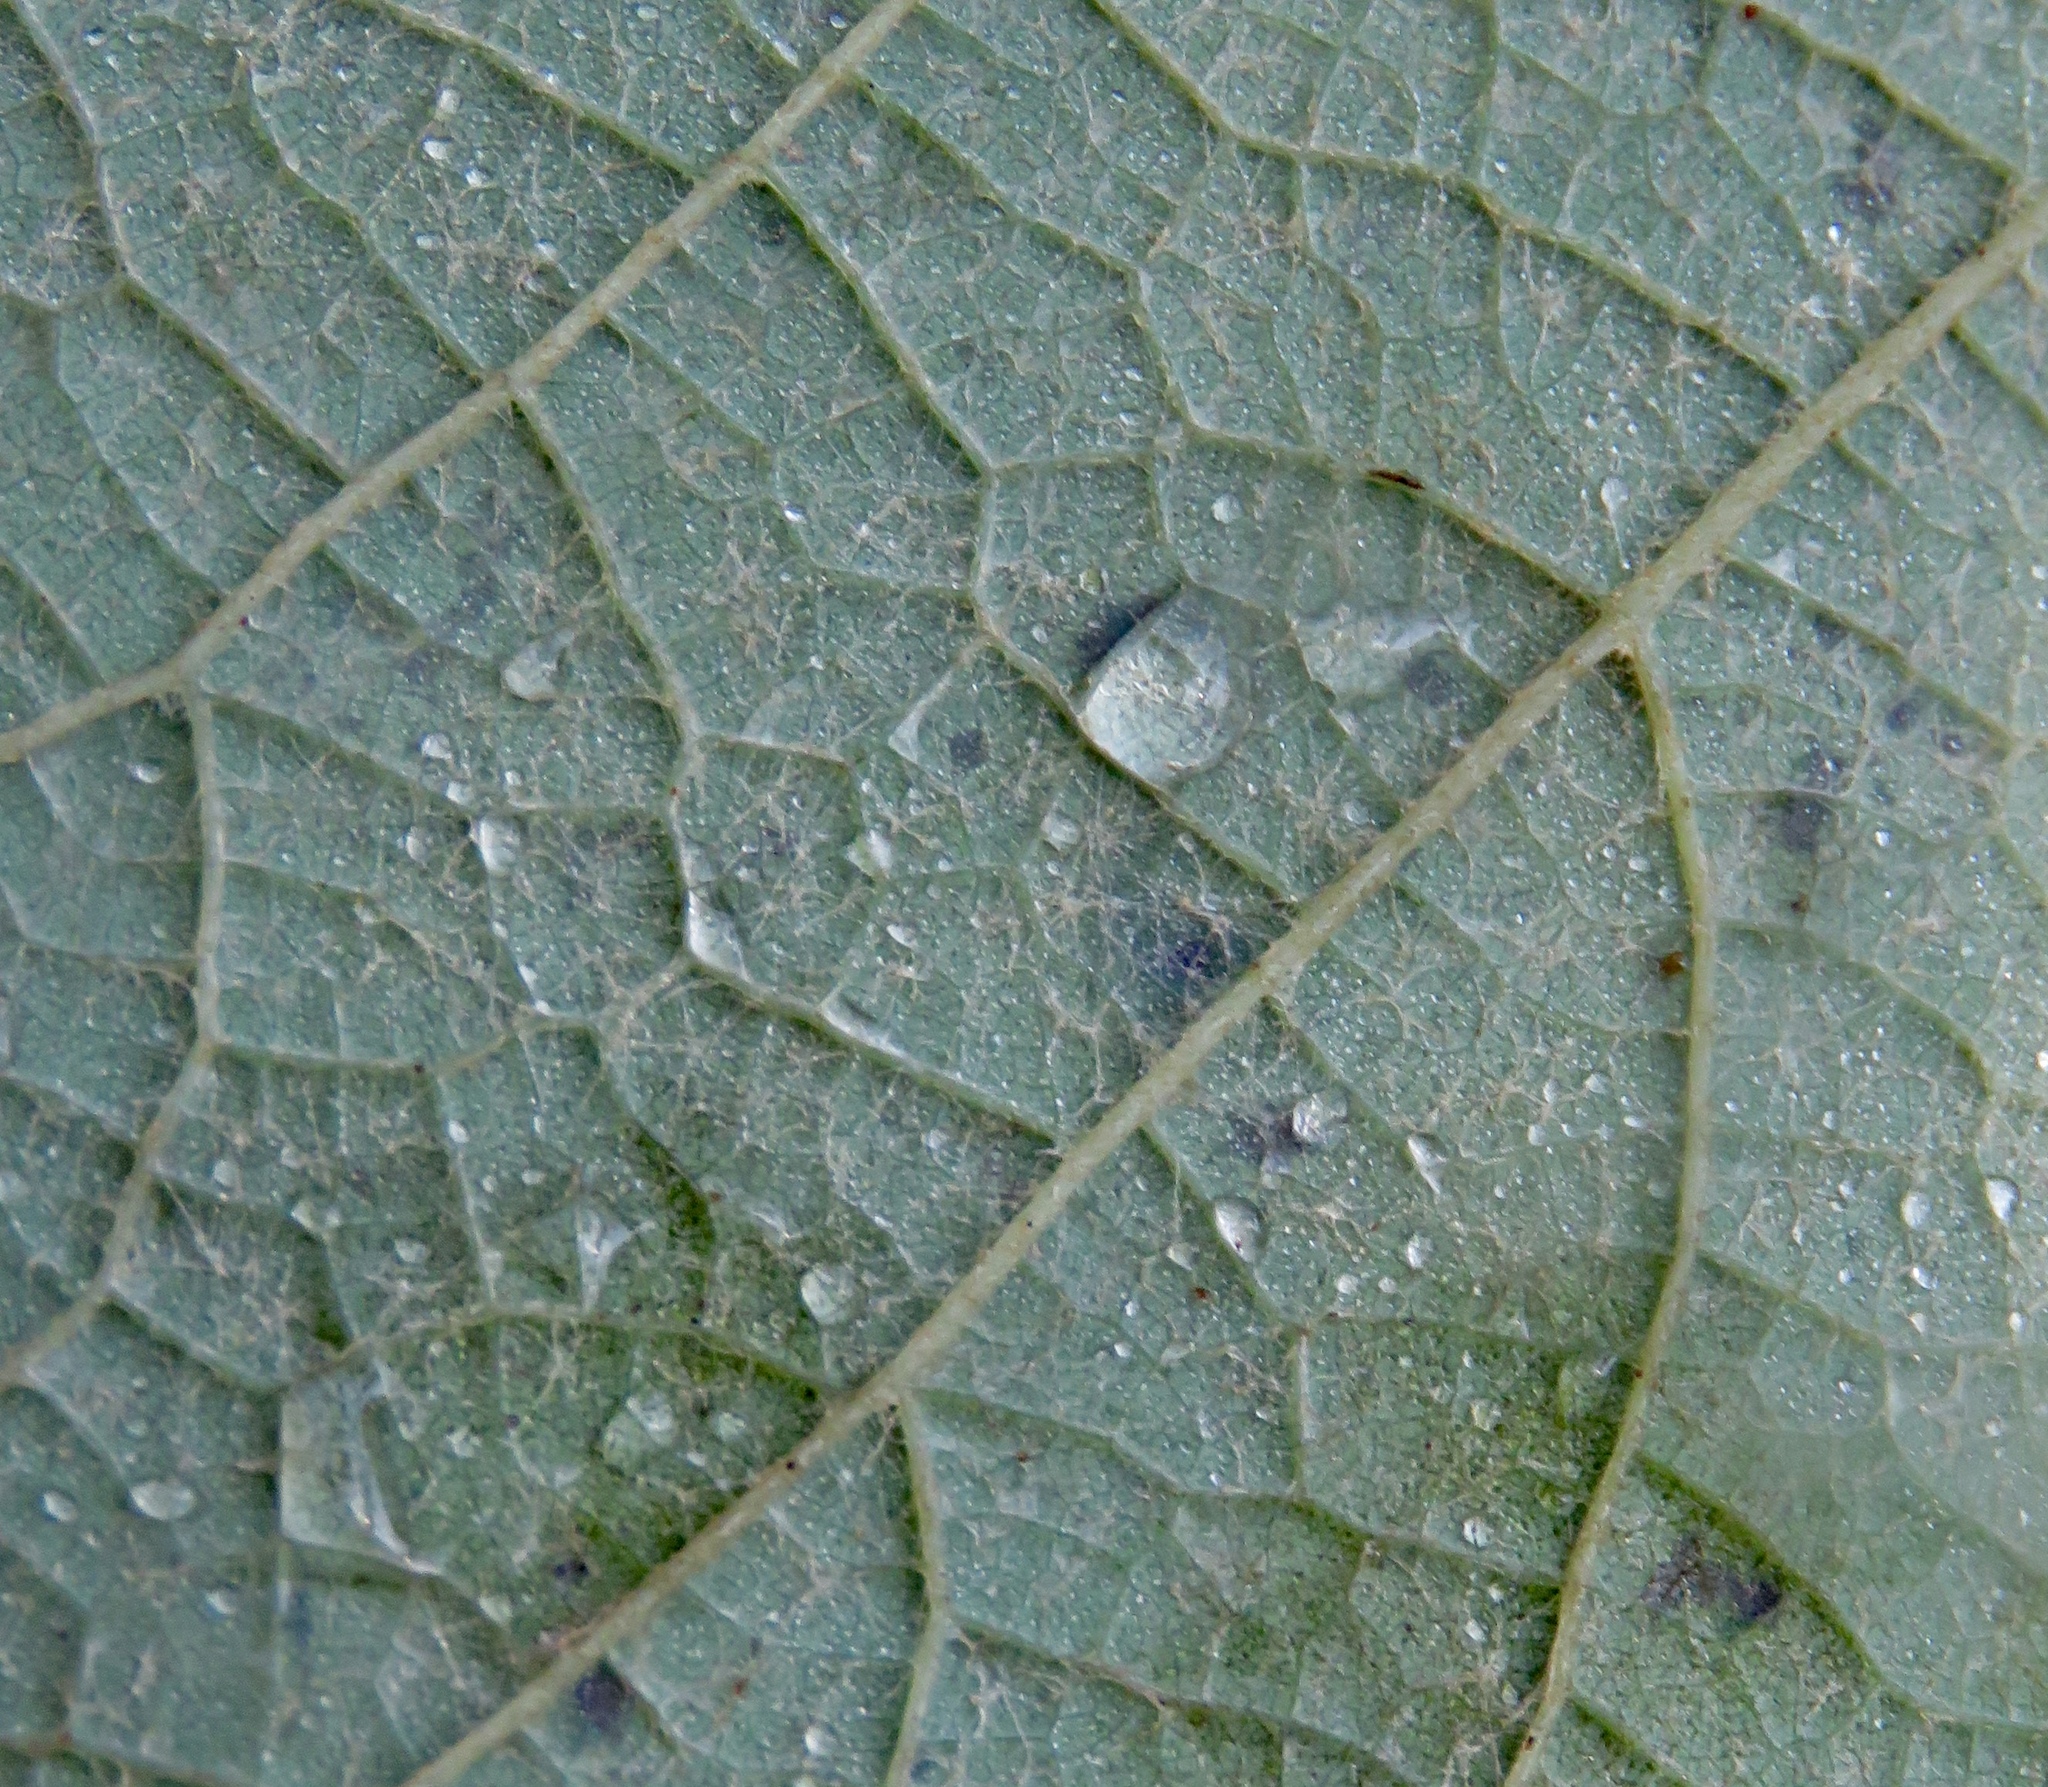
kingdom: Plantae
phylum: Tracheophyta
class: Magnoliopsida
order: Vitales
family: Vitaceae
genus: Vitis
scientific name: Vitis aestivalis
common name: Pigeon grape
